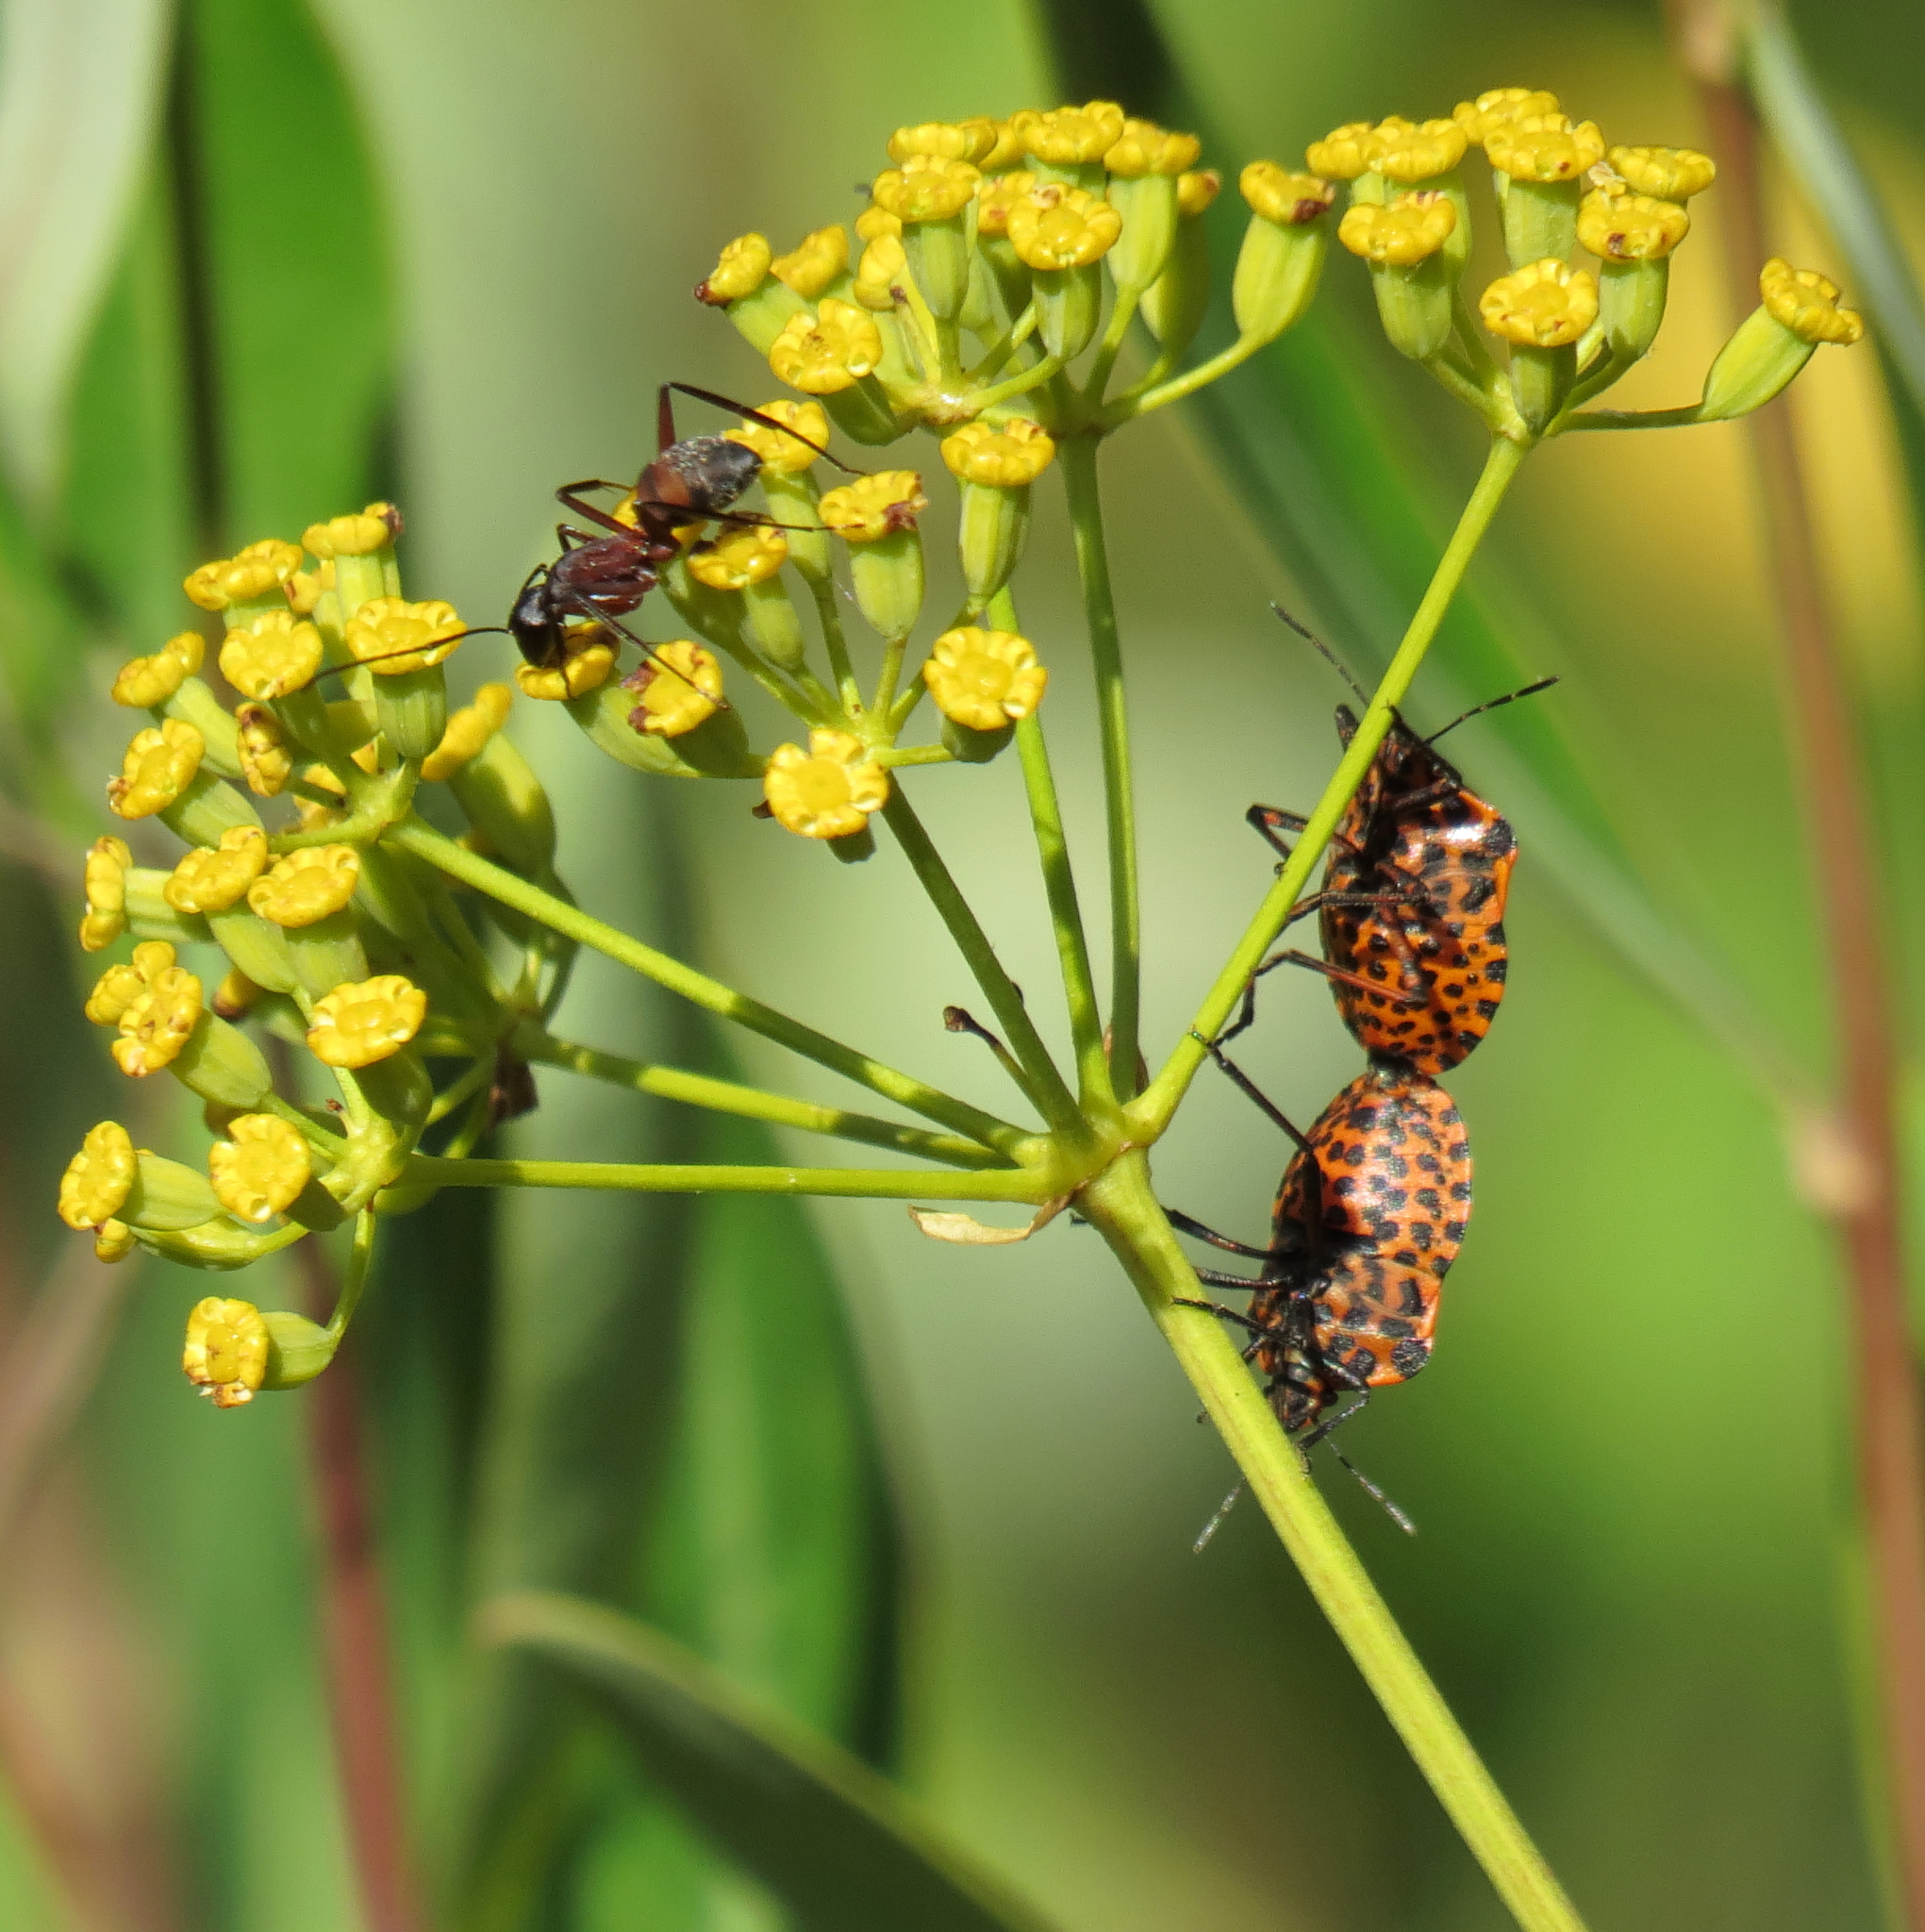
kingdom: Animalia
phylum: Arthropoda
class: Insecta
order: Hemiptera
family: Pentatomidae
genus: Graphosoma
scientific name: Graphosoma italicum
